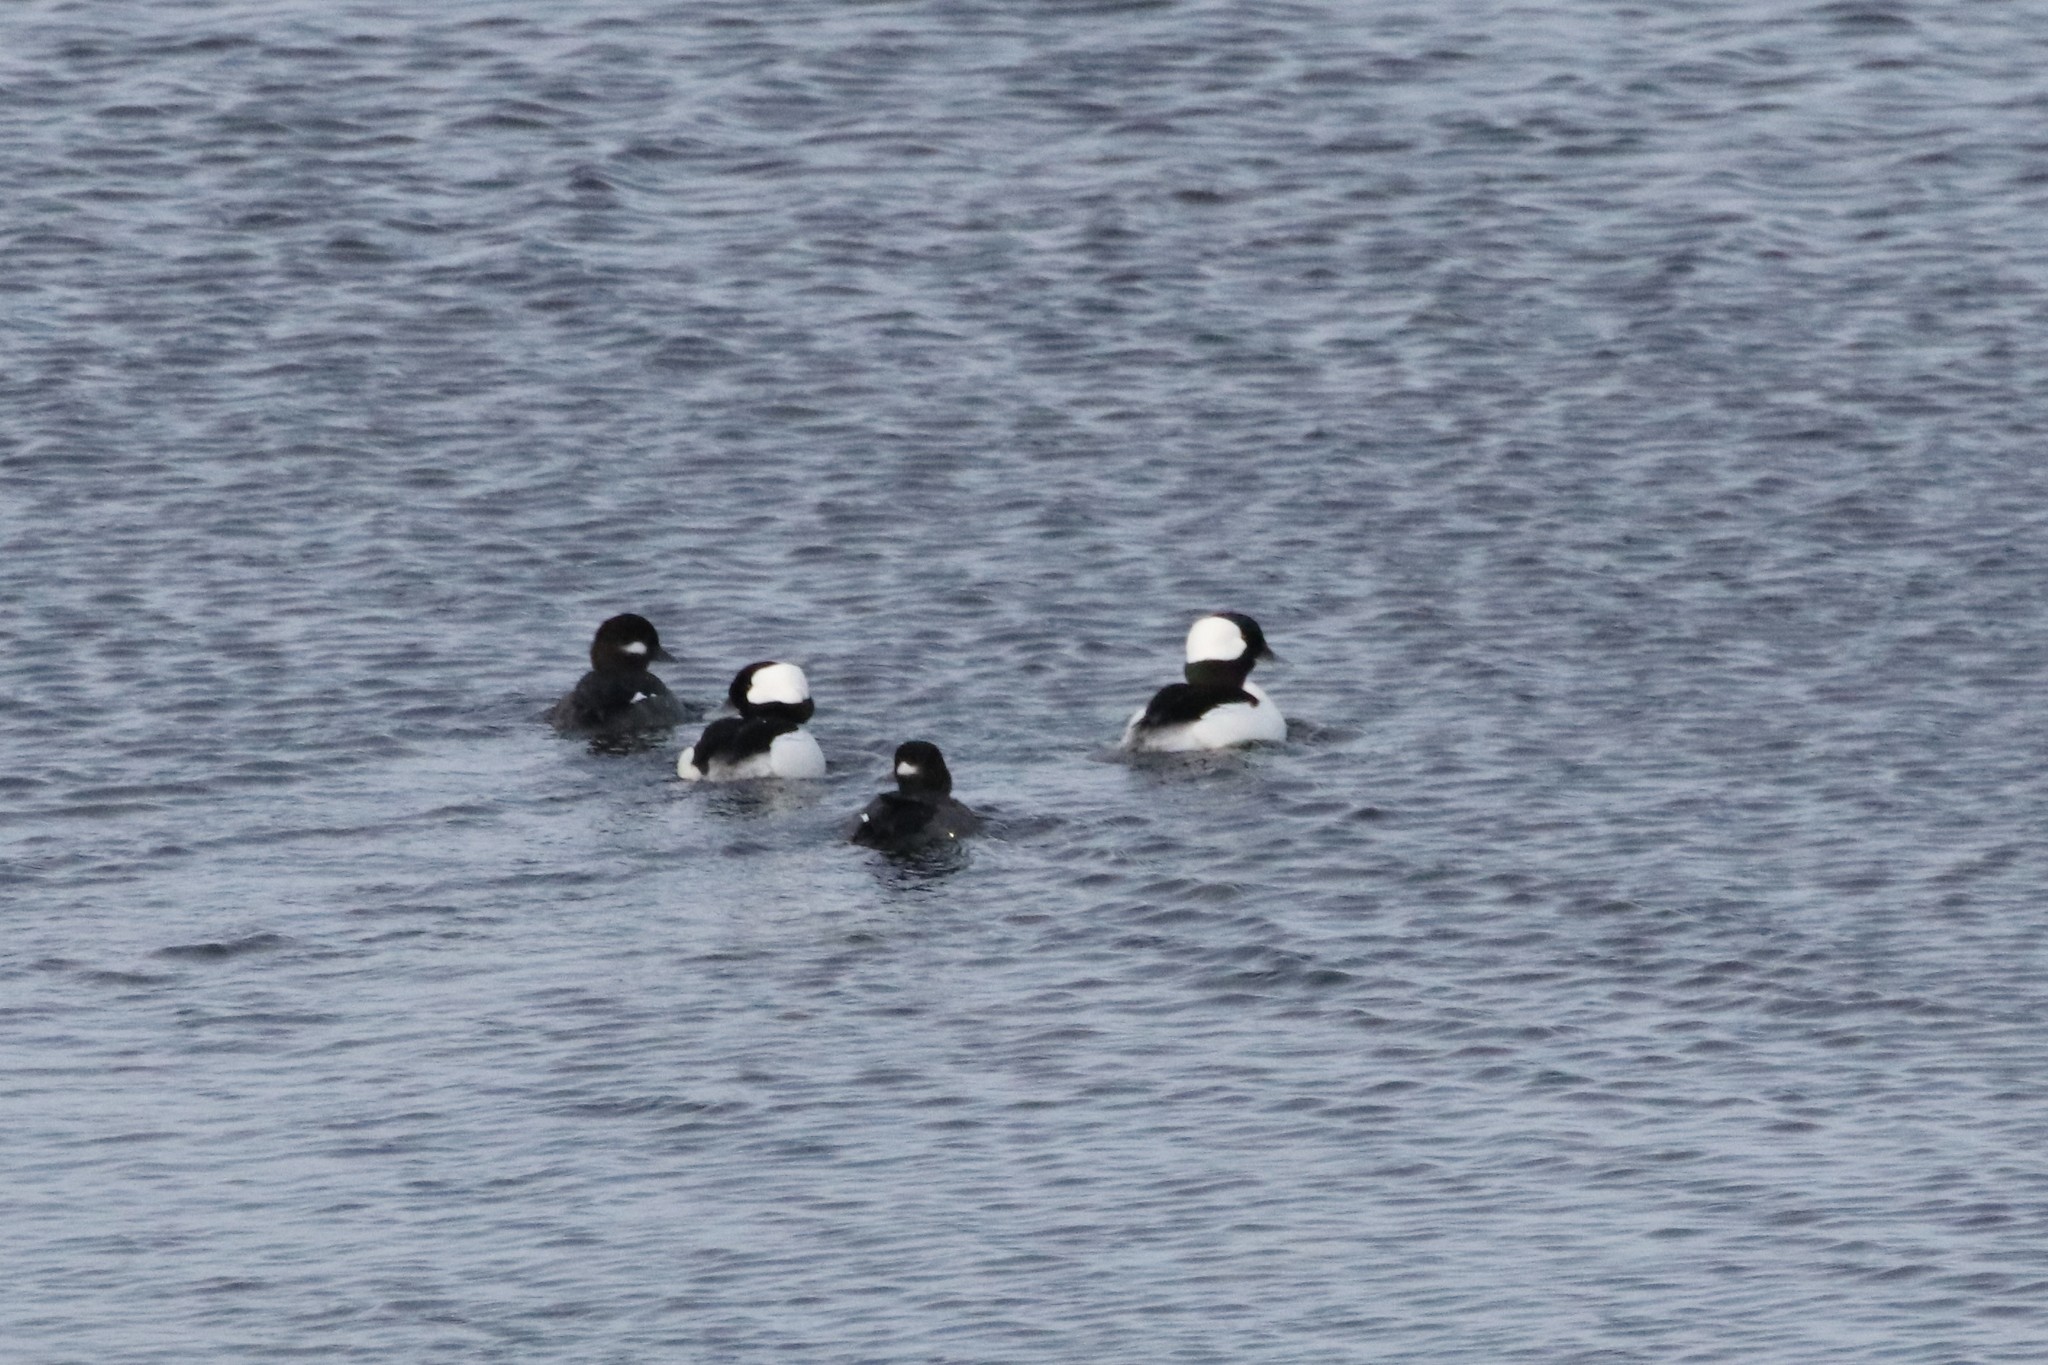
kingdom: Animalia
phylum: Chordata
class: Aves
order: Anseriformes
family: Anatidae
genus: Bucephala
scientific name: Bucephala albeola
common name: Bufflehead
